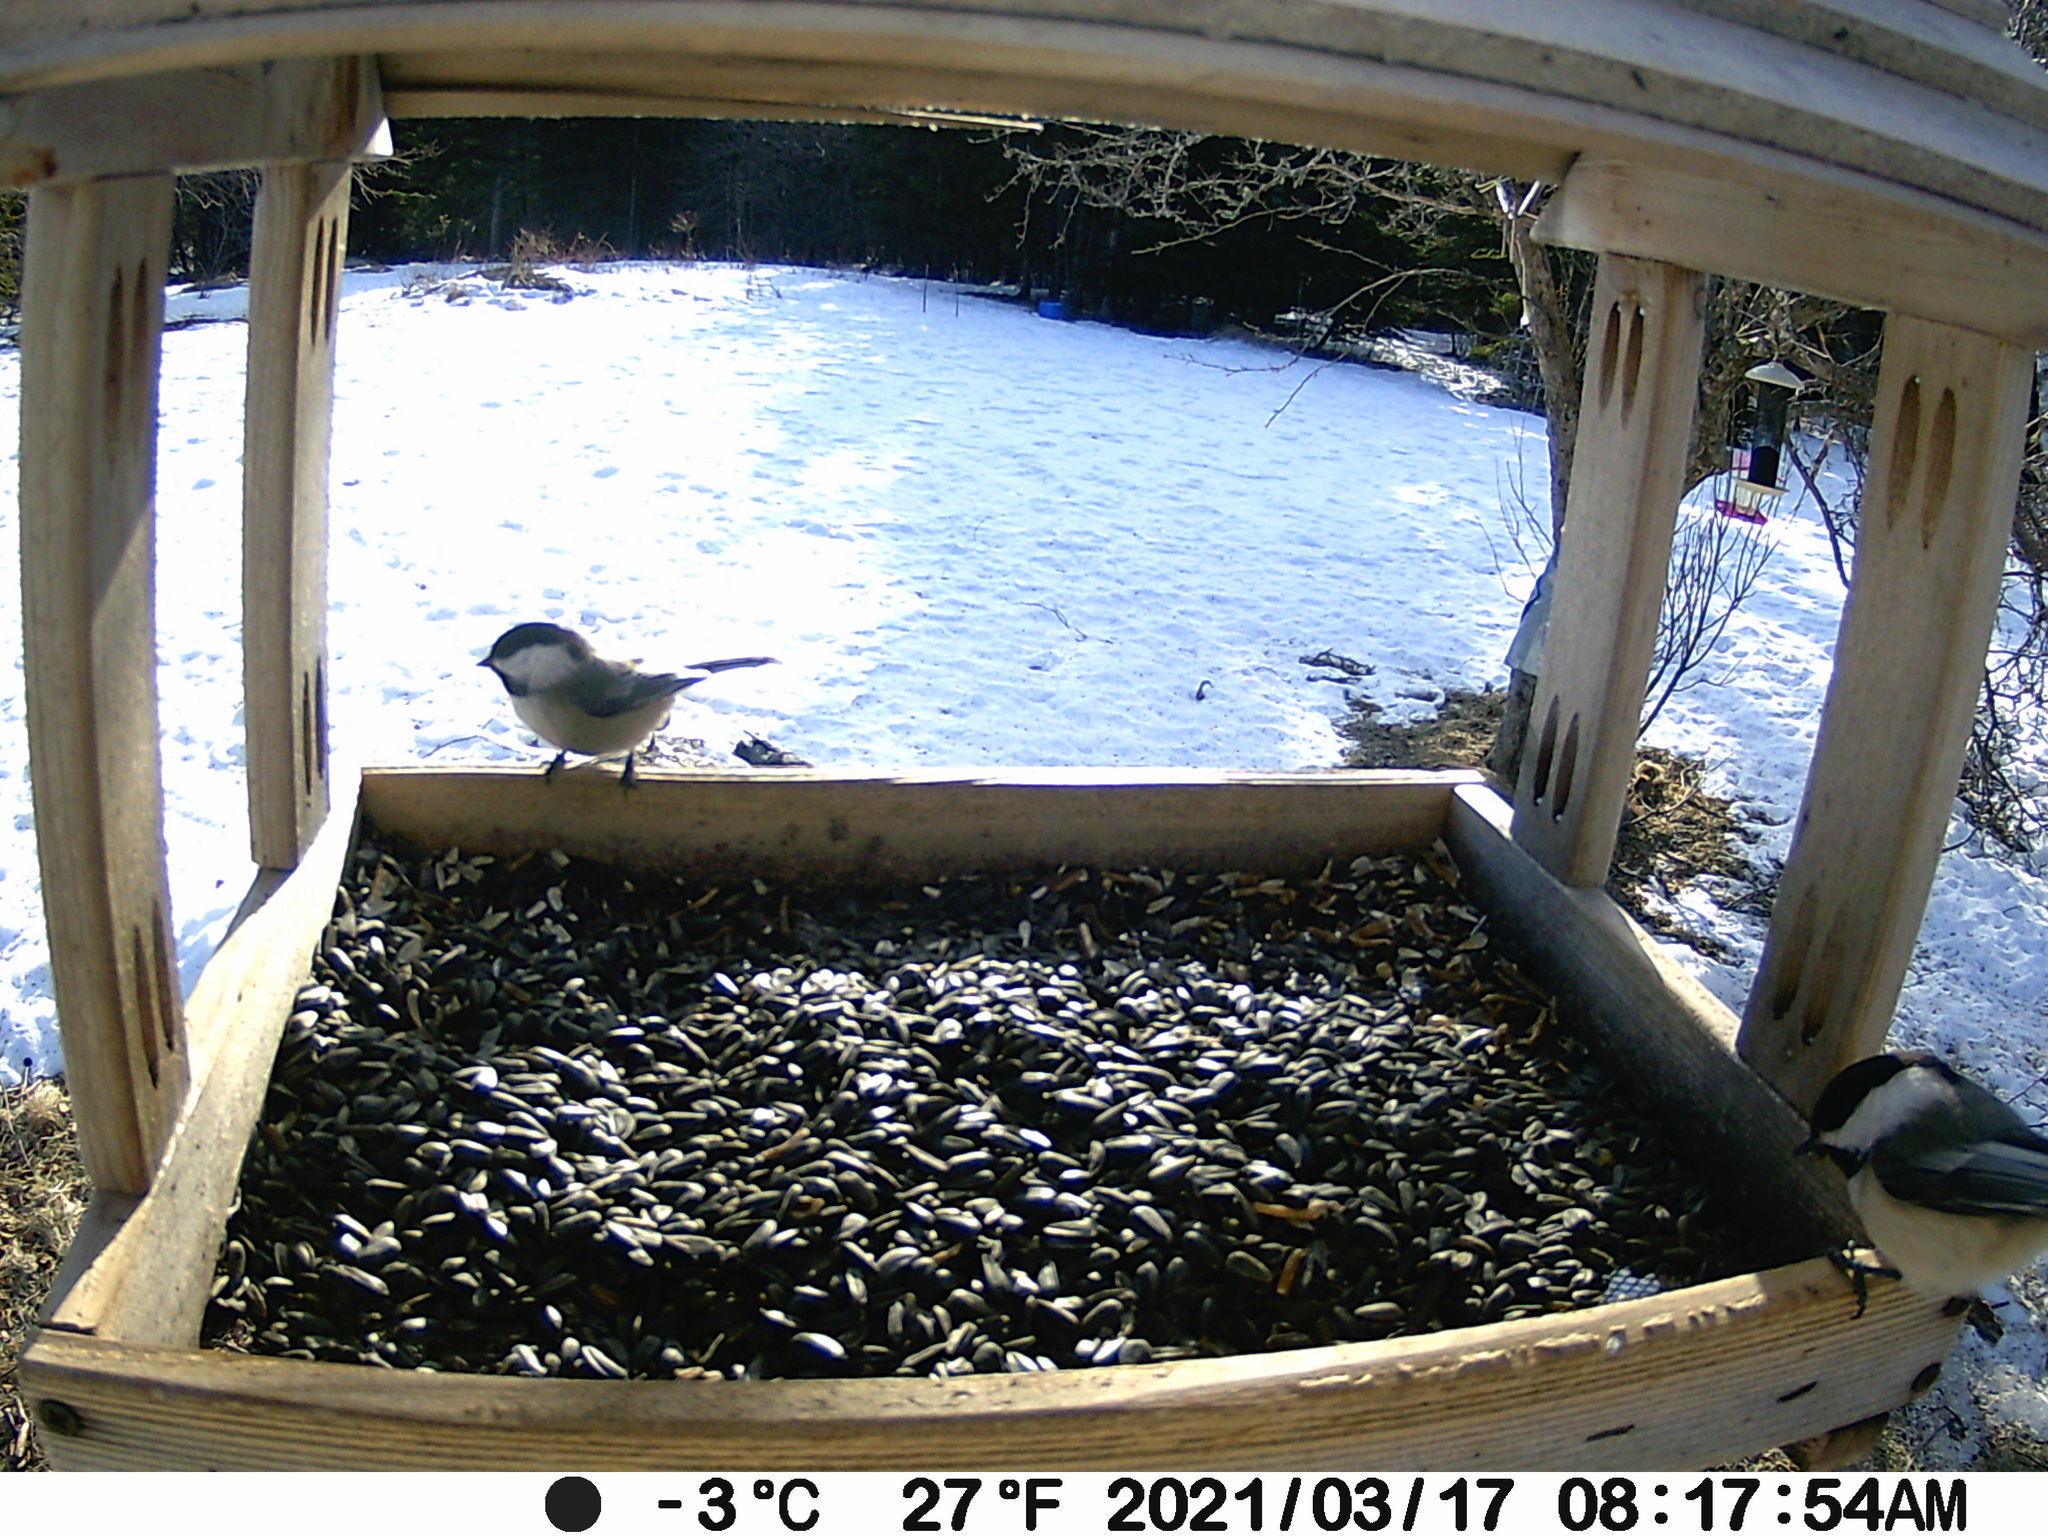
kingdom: Animalia
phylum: Chordata
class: Aves
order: Passeriformes
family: Paridae
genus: Poecile
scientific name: Poecile atricapillus
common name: Black-capped chickadee
